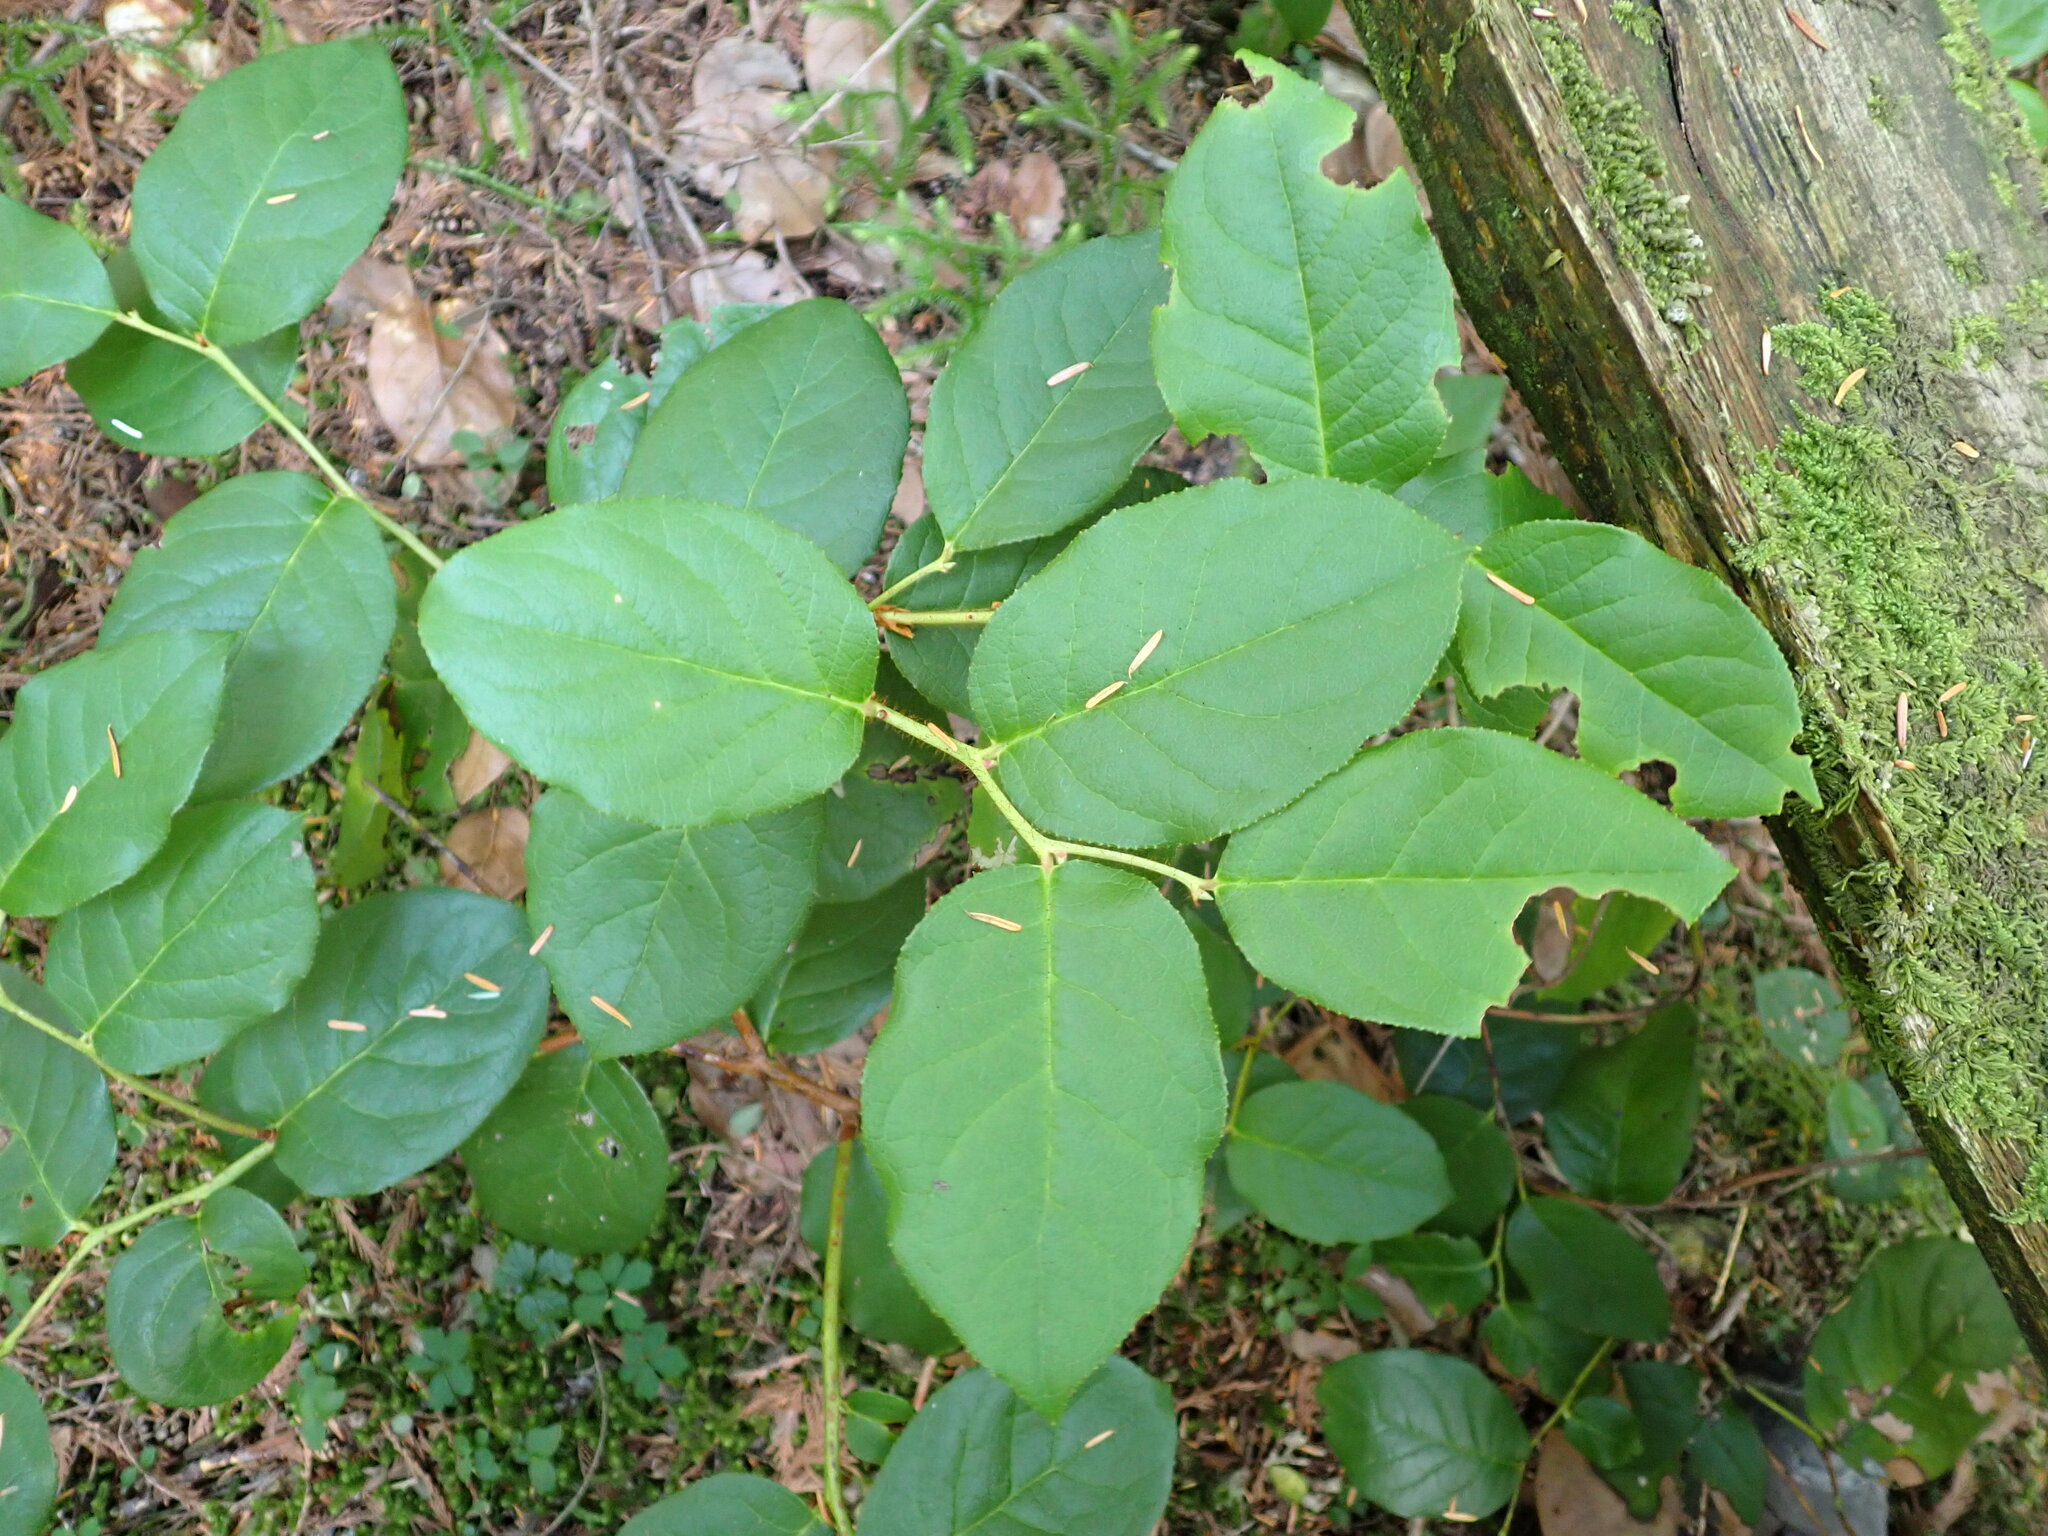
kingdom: Plantae
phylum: Tracheophyta
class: Magnoliopsida
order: Ericales
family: Ericaceae
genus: Gaultheria
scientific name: Gaultheria shallon
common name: Shallon
